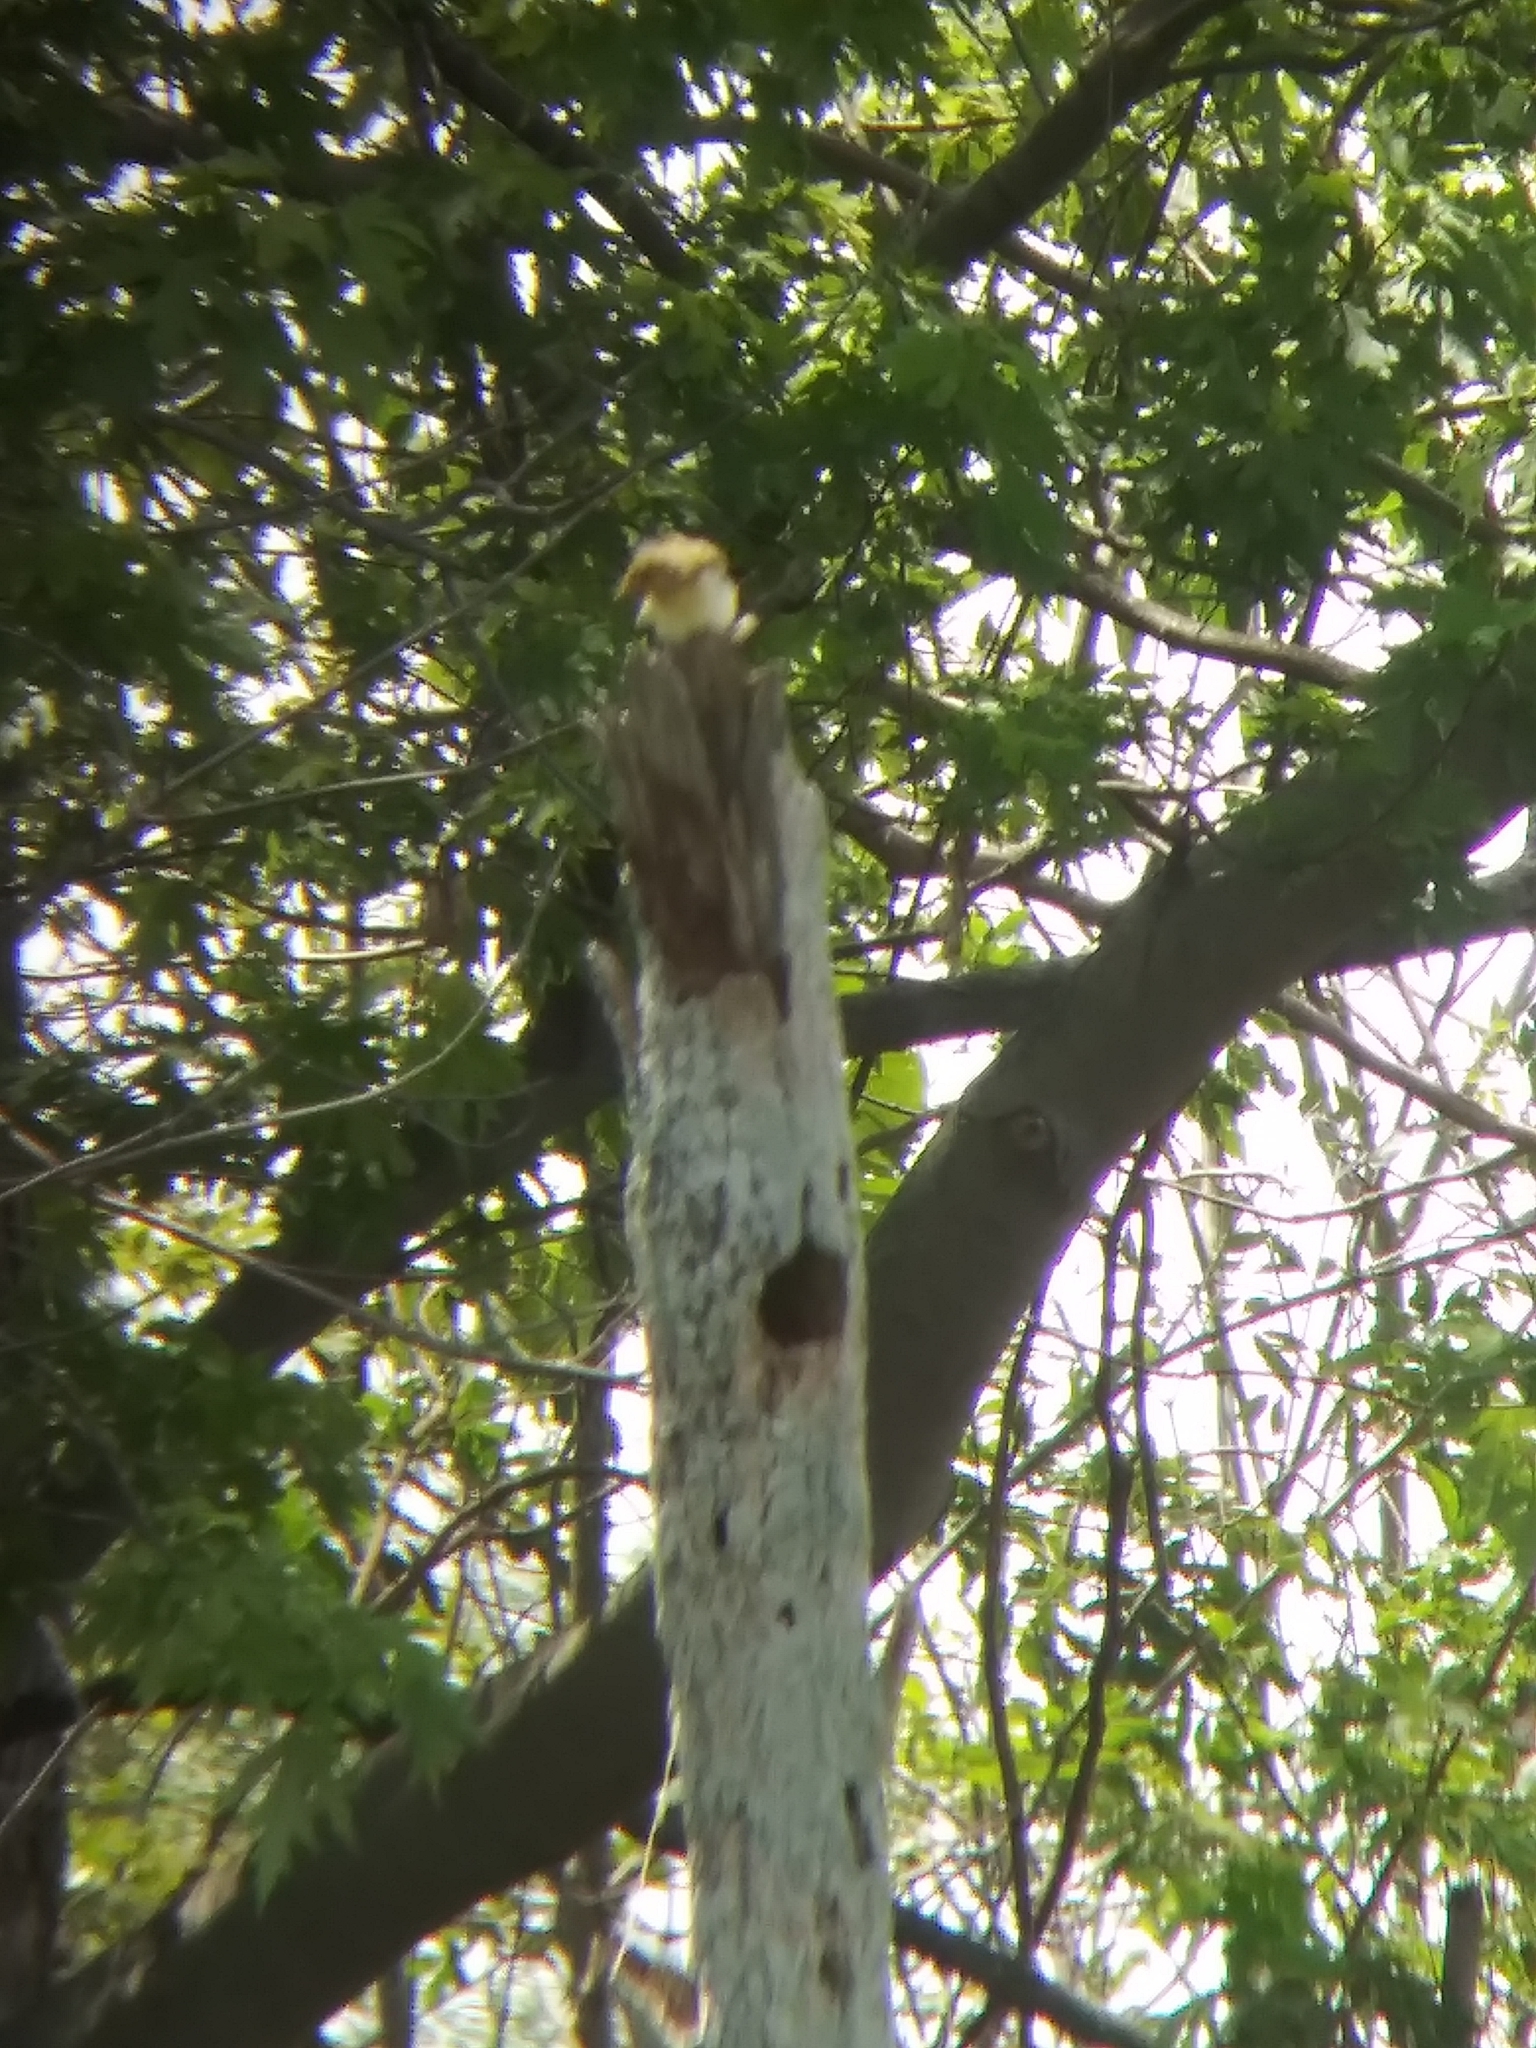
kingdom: Animalia
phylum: Chordata
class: Aves
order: Passeriformes
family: Parulidae
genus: Protonotaria
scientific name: Protonotaria citrea
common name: Prothonotary warbler
